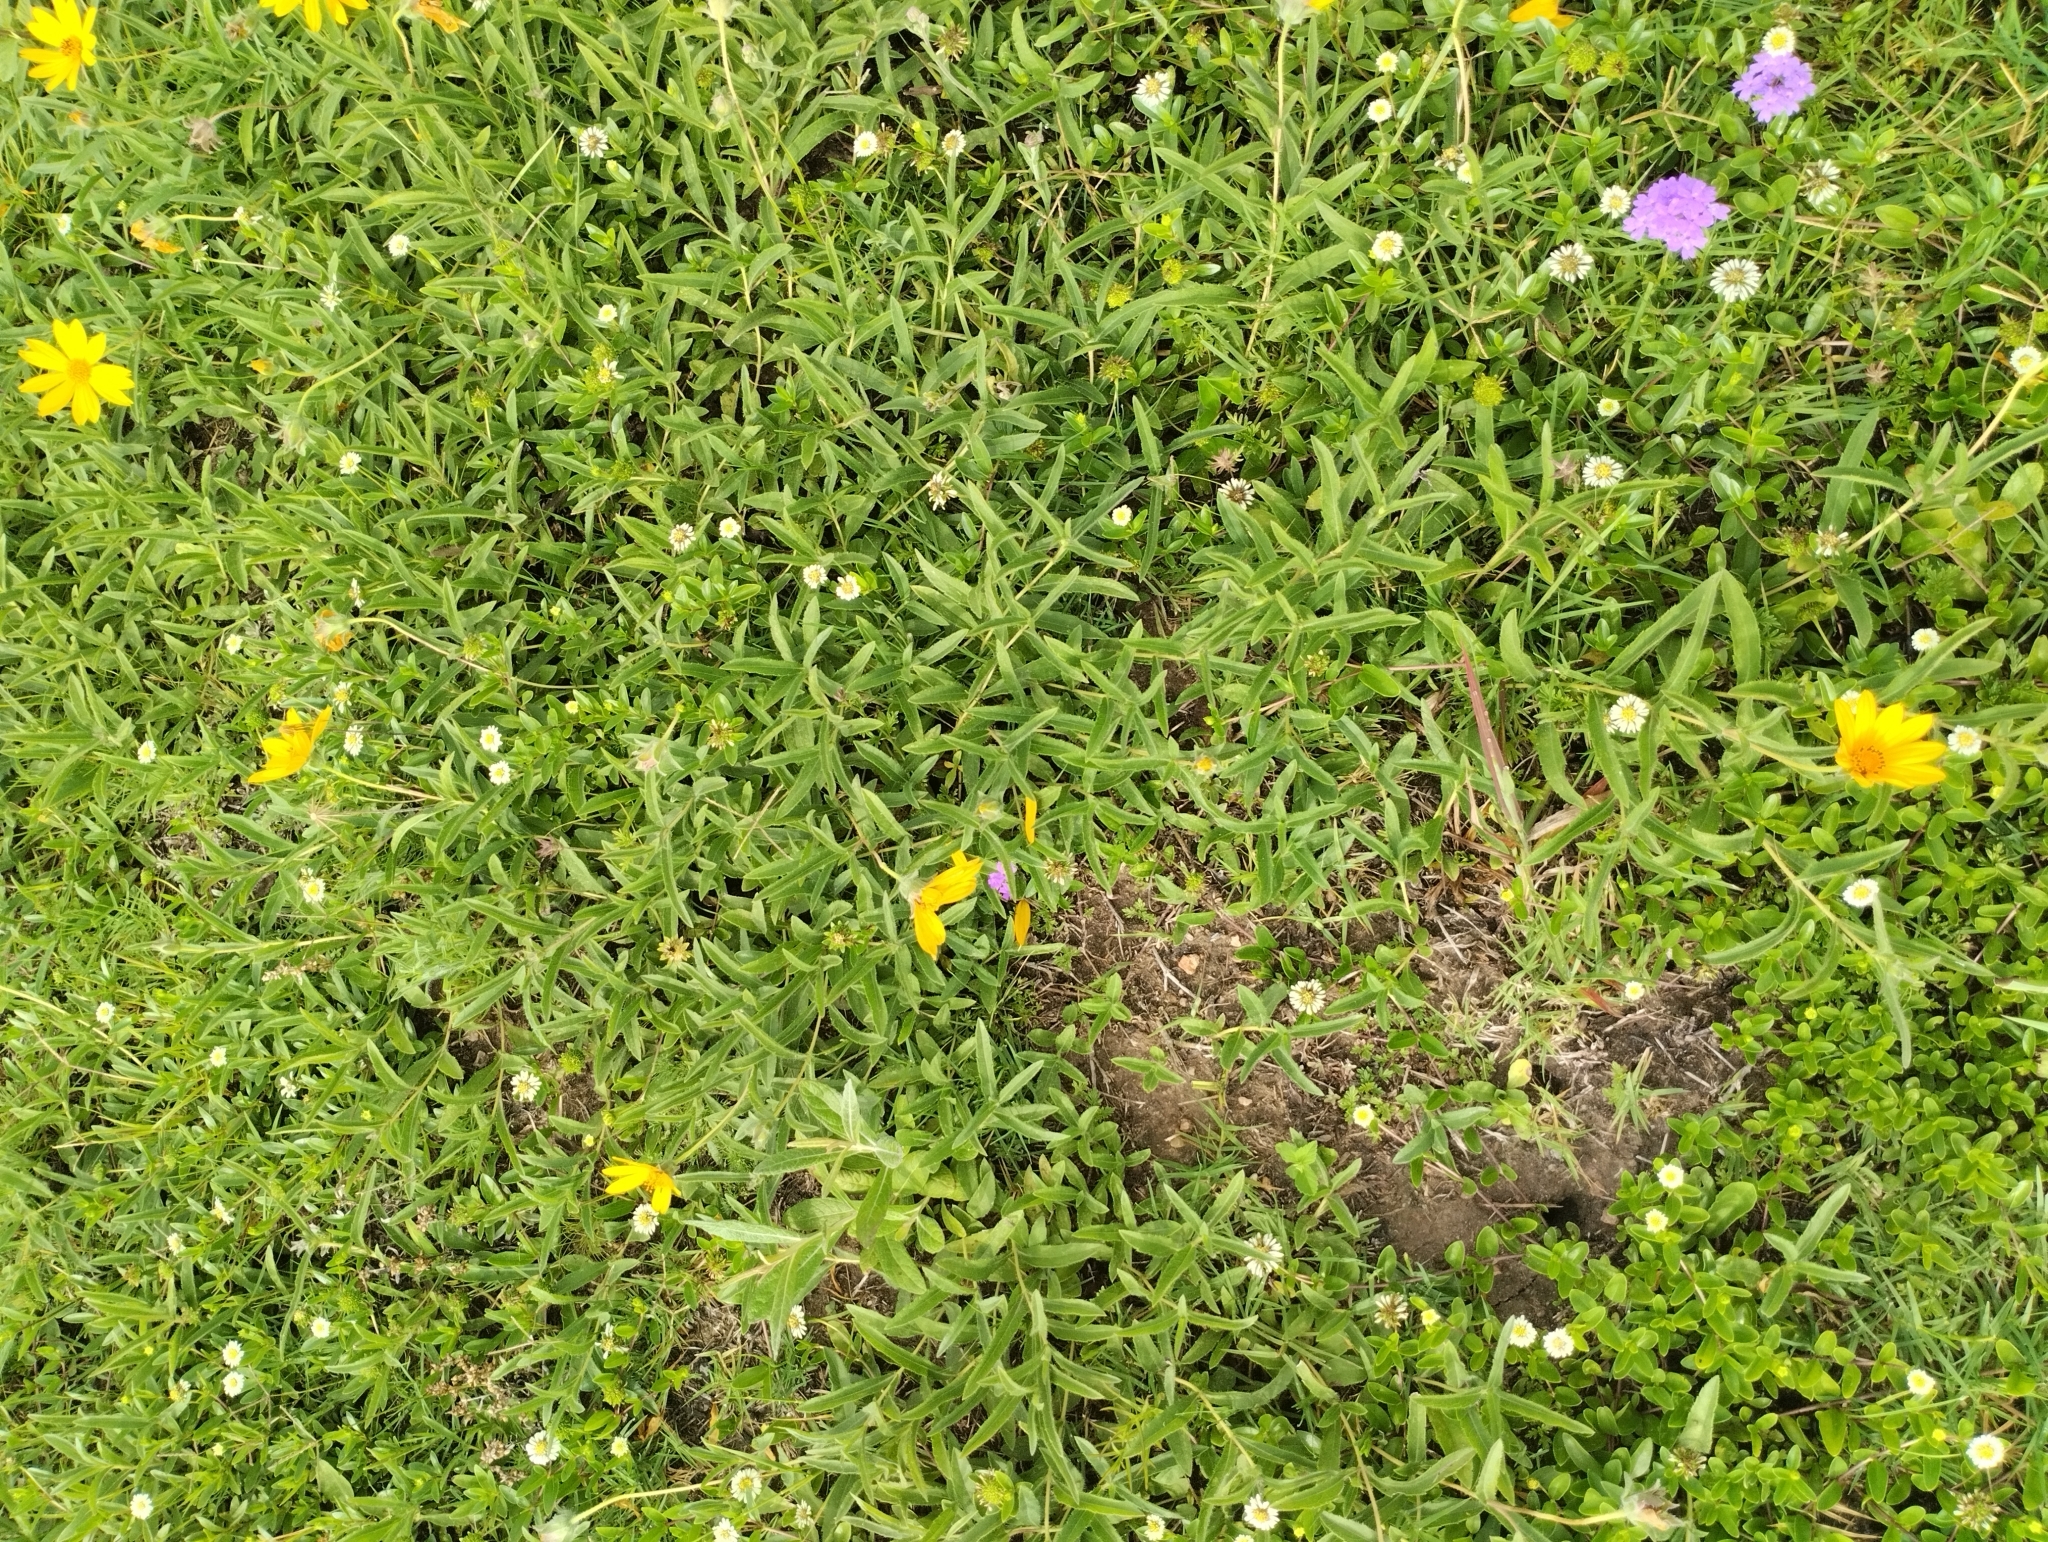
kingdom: Plantae
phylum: Tracheophyta
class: Magnoliopsida
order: Asterales
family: Asteraceae
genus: Wedelia
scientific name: Wedelia montevidensis
